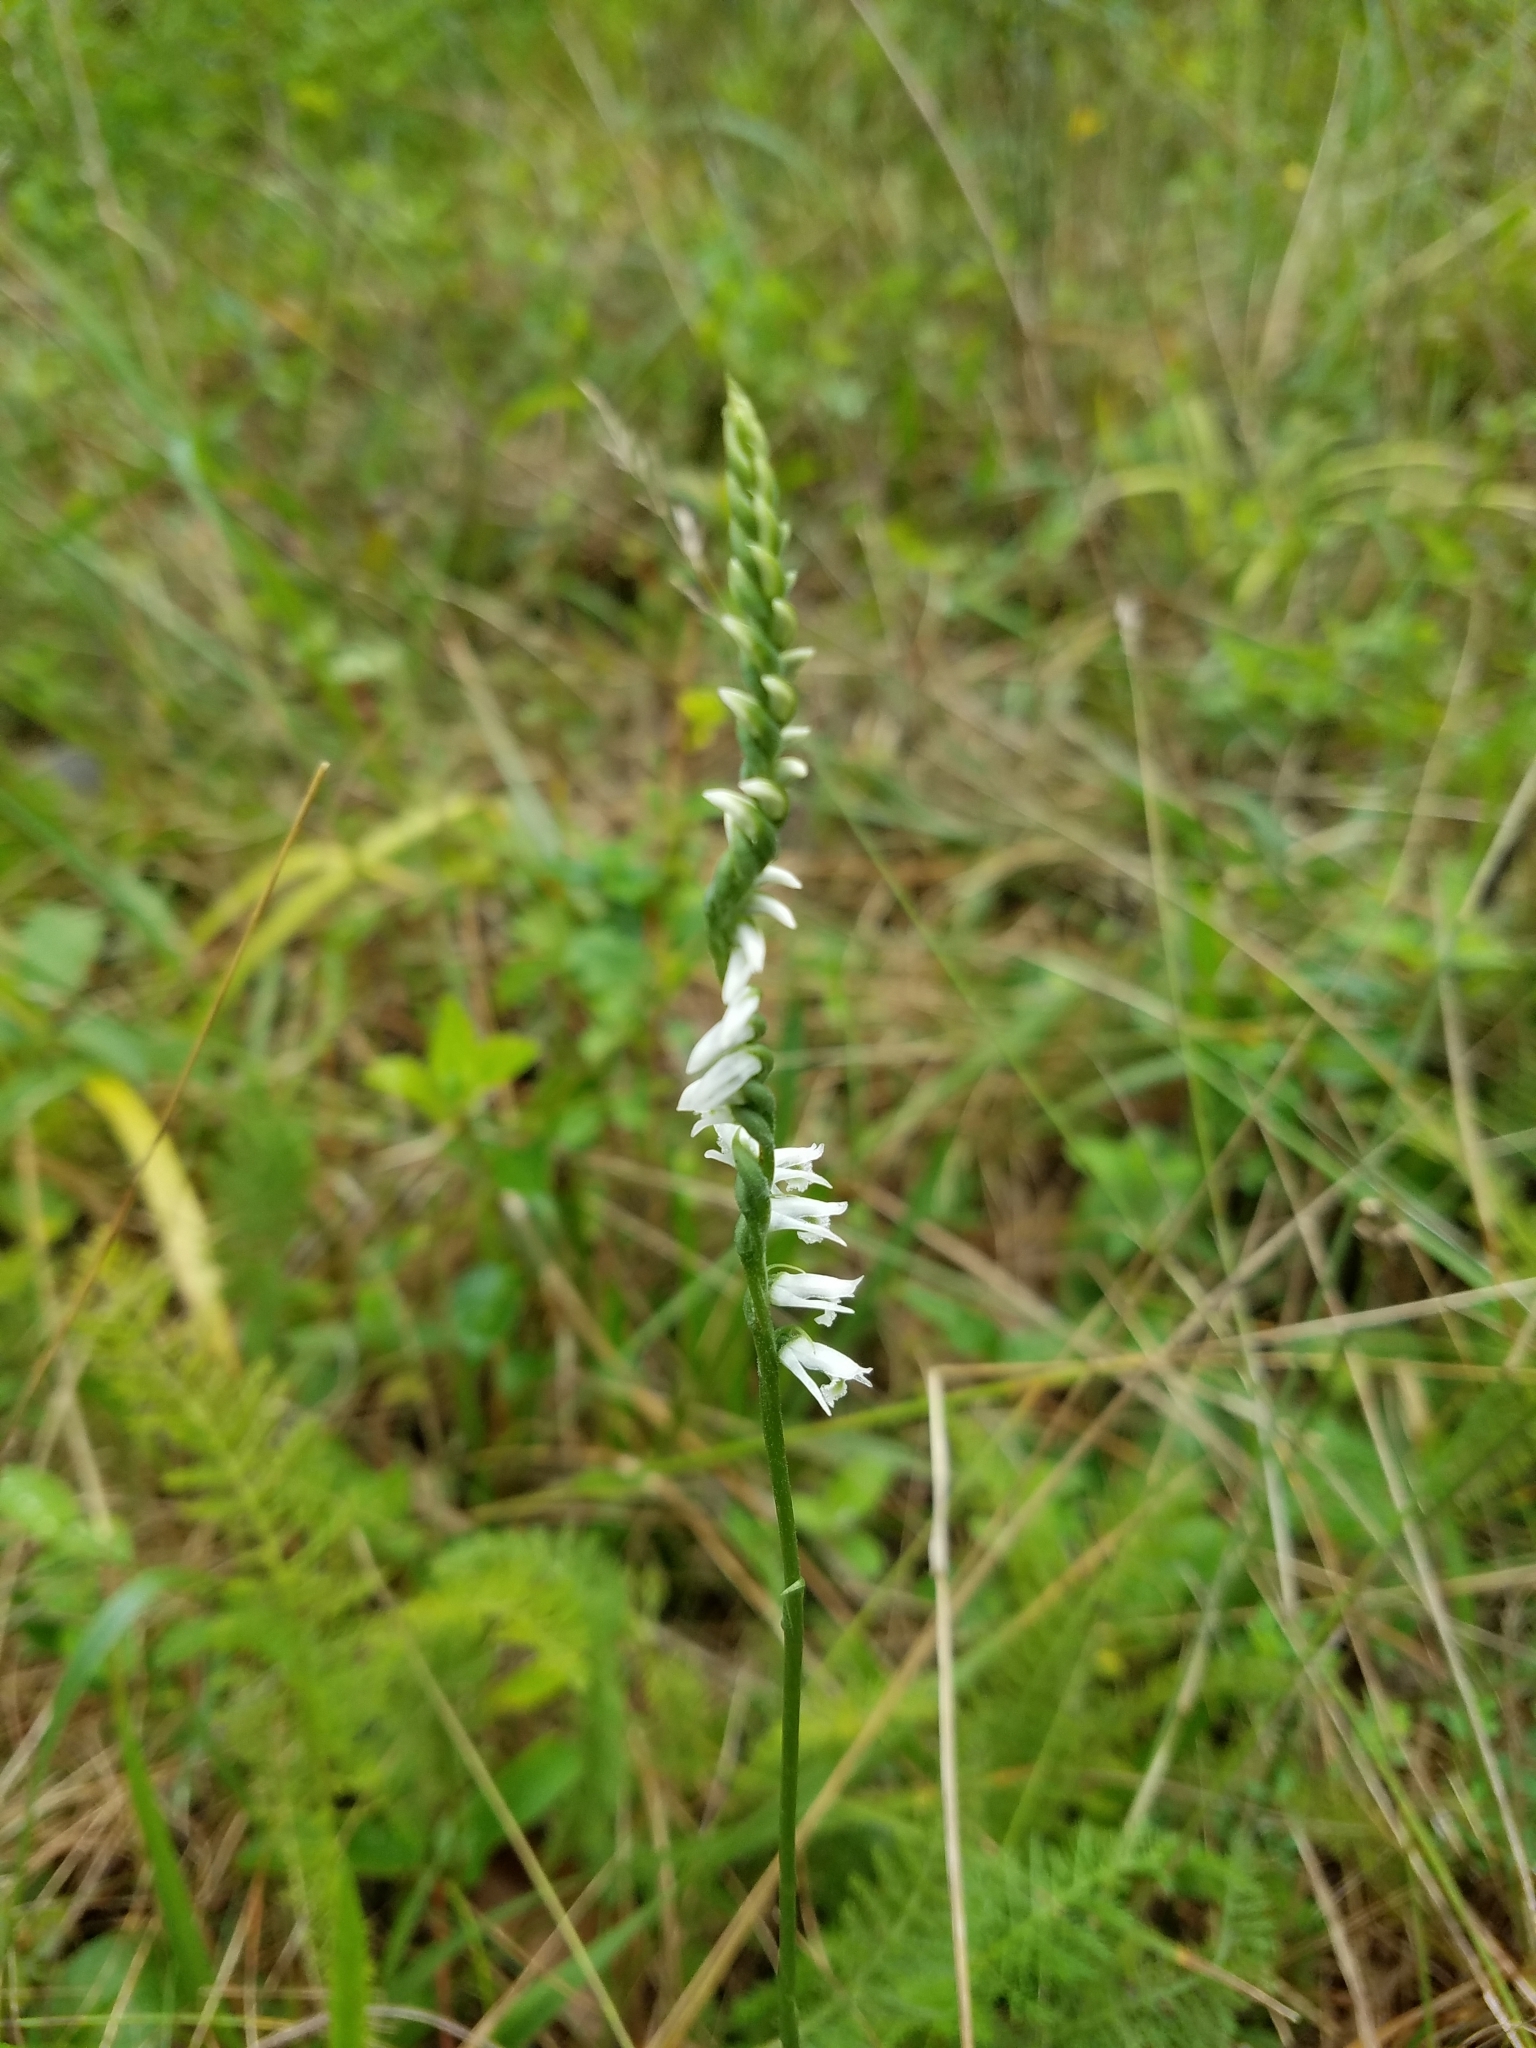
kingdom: Plantae
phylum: Tracheophyta
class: Liliopsida
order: Asparagales
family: Orchidaceae
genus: Spiranthes
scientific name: Spiranthes lacera
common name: Northern slender ladies'-tresses
